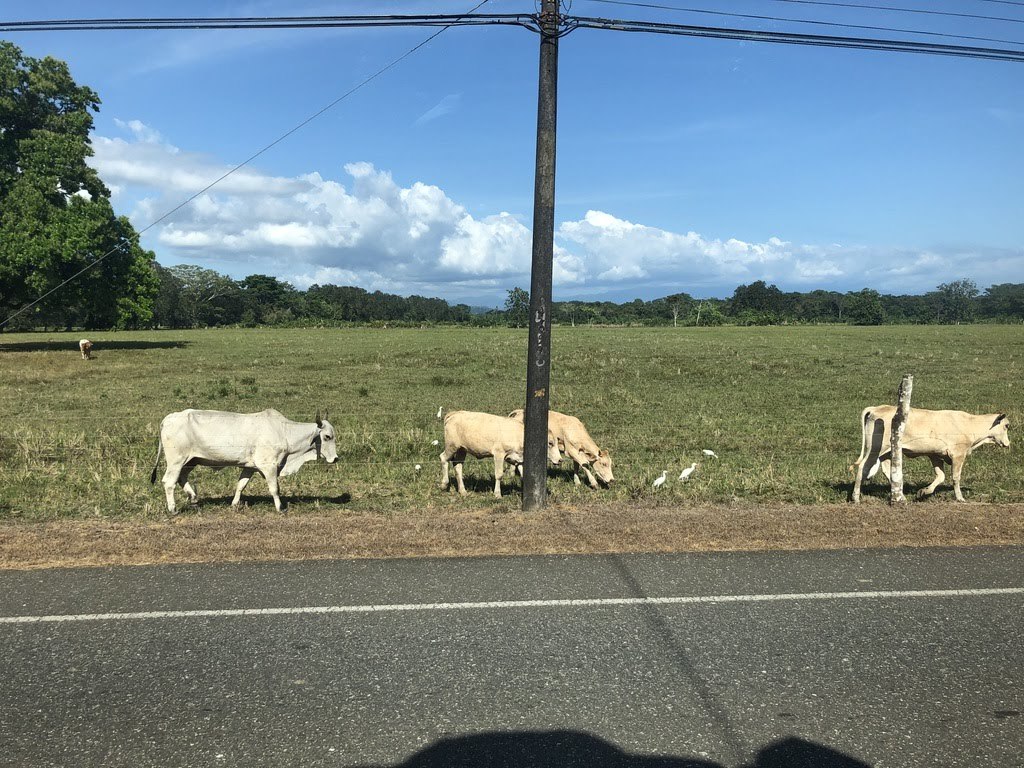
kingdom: Animalia
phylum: Chordata
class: Aves
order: Pelecaniformes
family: Ardeidae
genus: Bubulcus
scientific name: Bubulcus ibis
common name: Cattle egret
